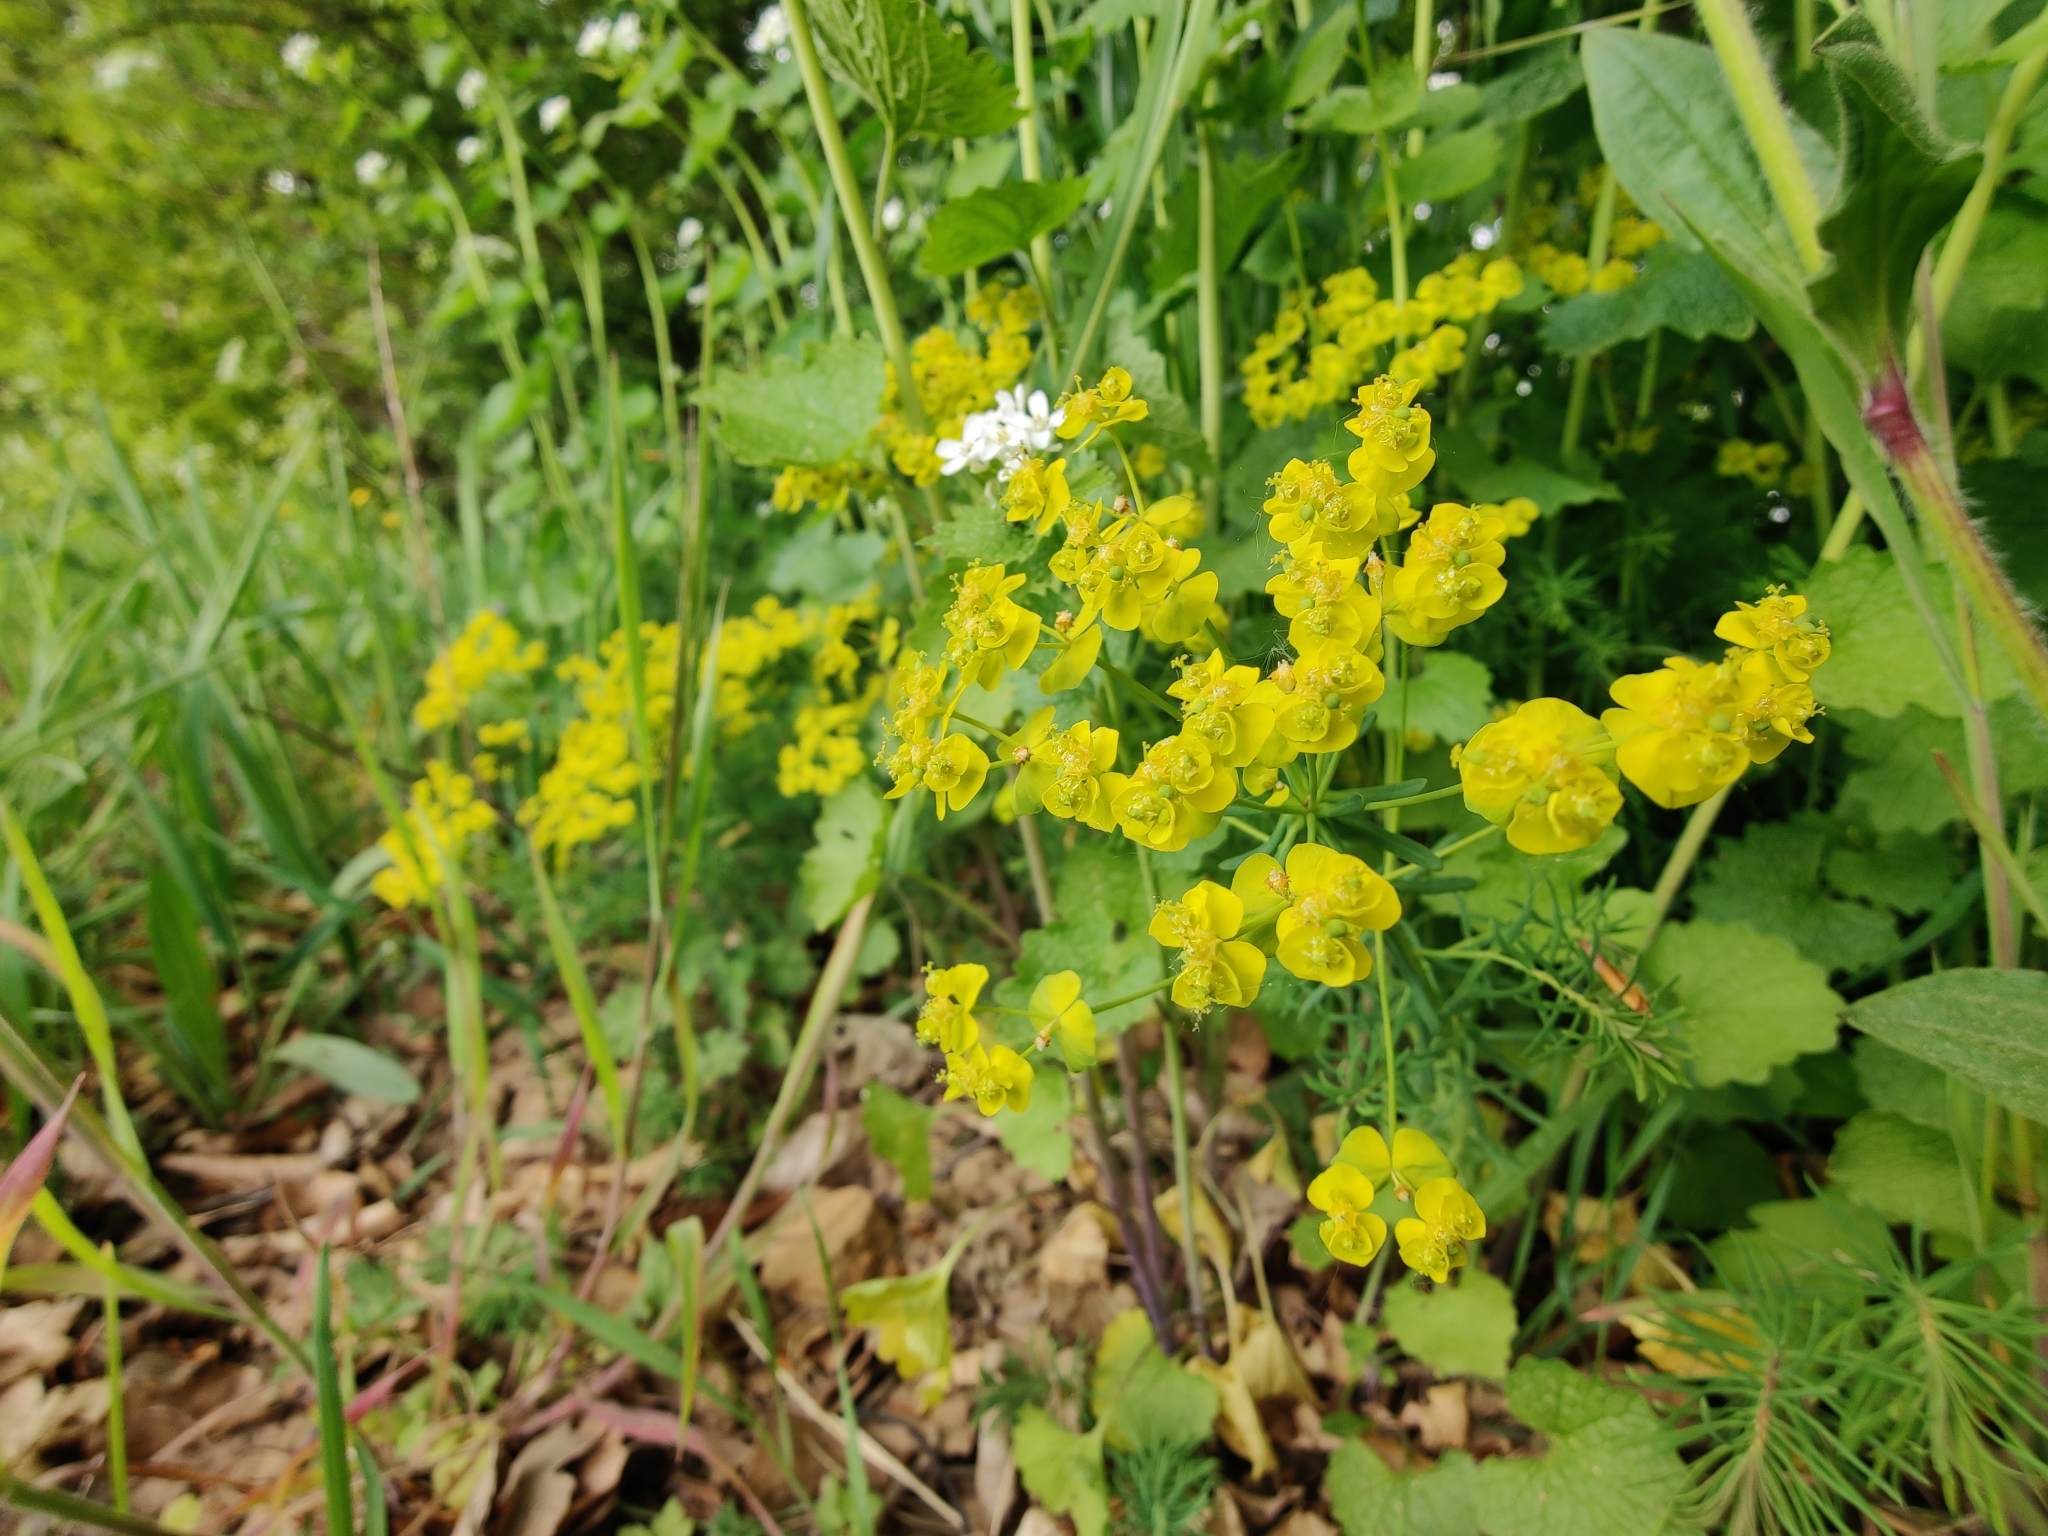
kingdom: Plantae
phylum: Tracheophyta
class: Magnoliopsida
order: Malpighiales
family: Euphorbiaceae
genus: Euphorbia
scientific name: Euphorbia cyparissias
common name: Cypress spurge
